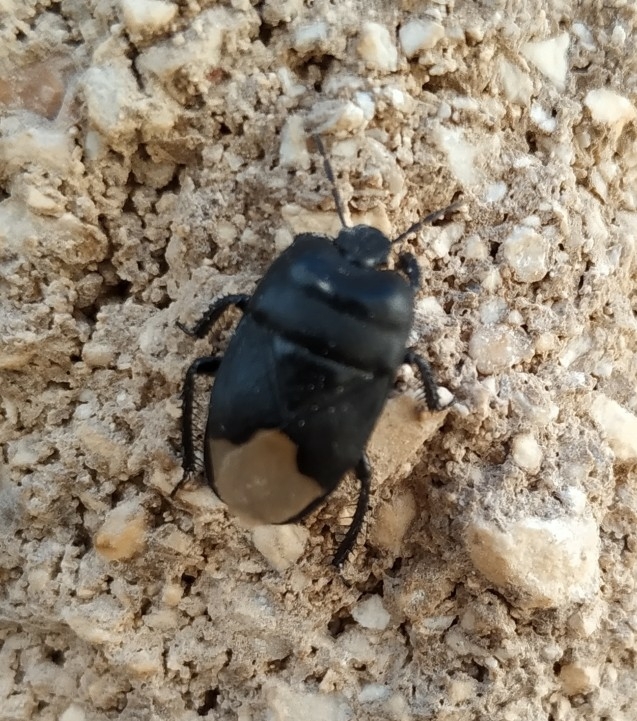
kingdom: Animalia
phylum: Arthropoda
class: Insecta
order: Hemiptera
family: Cydnidae
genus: Cydnus
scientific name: Cydnus aterrimus
